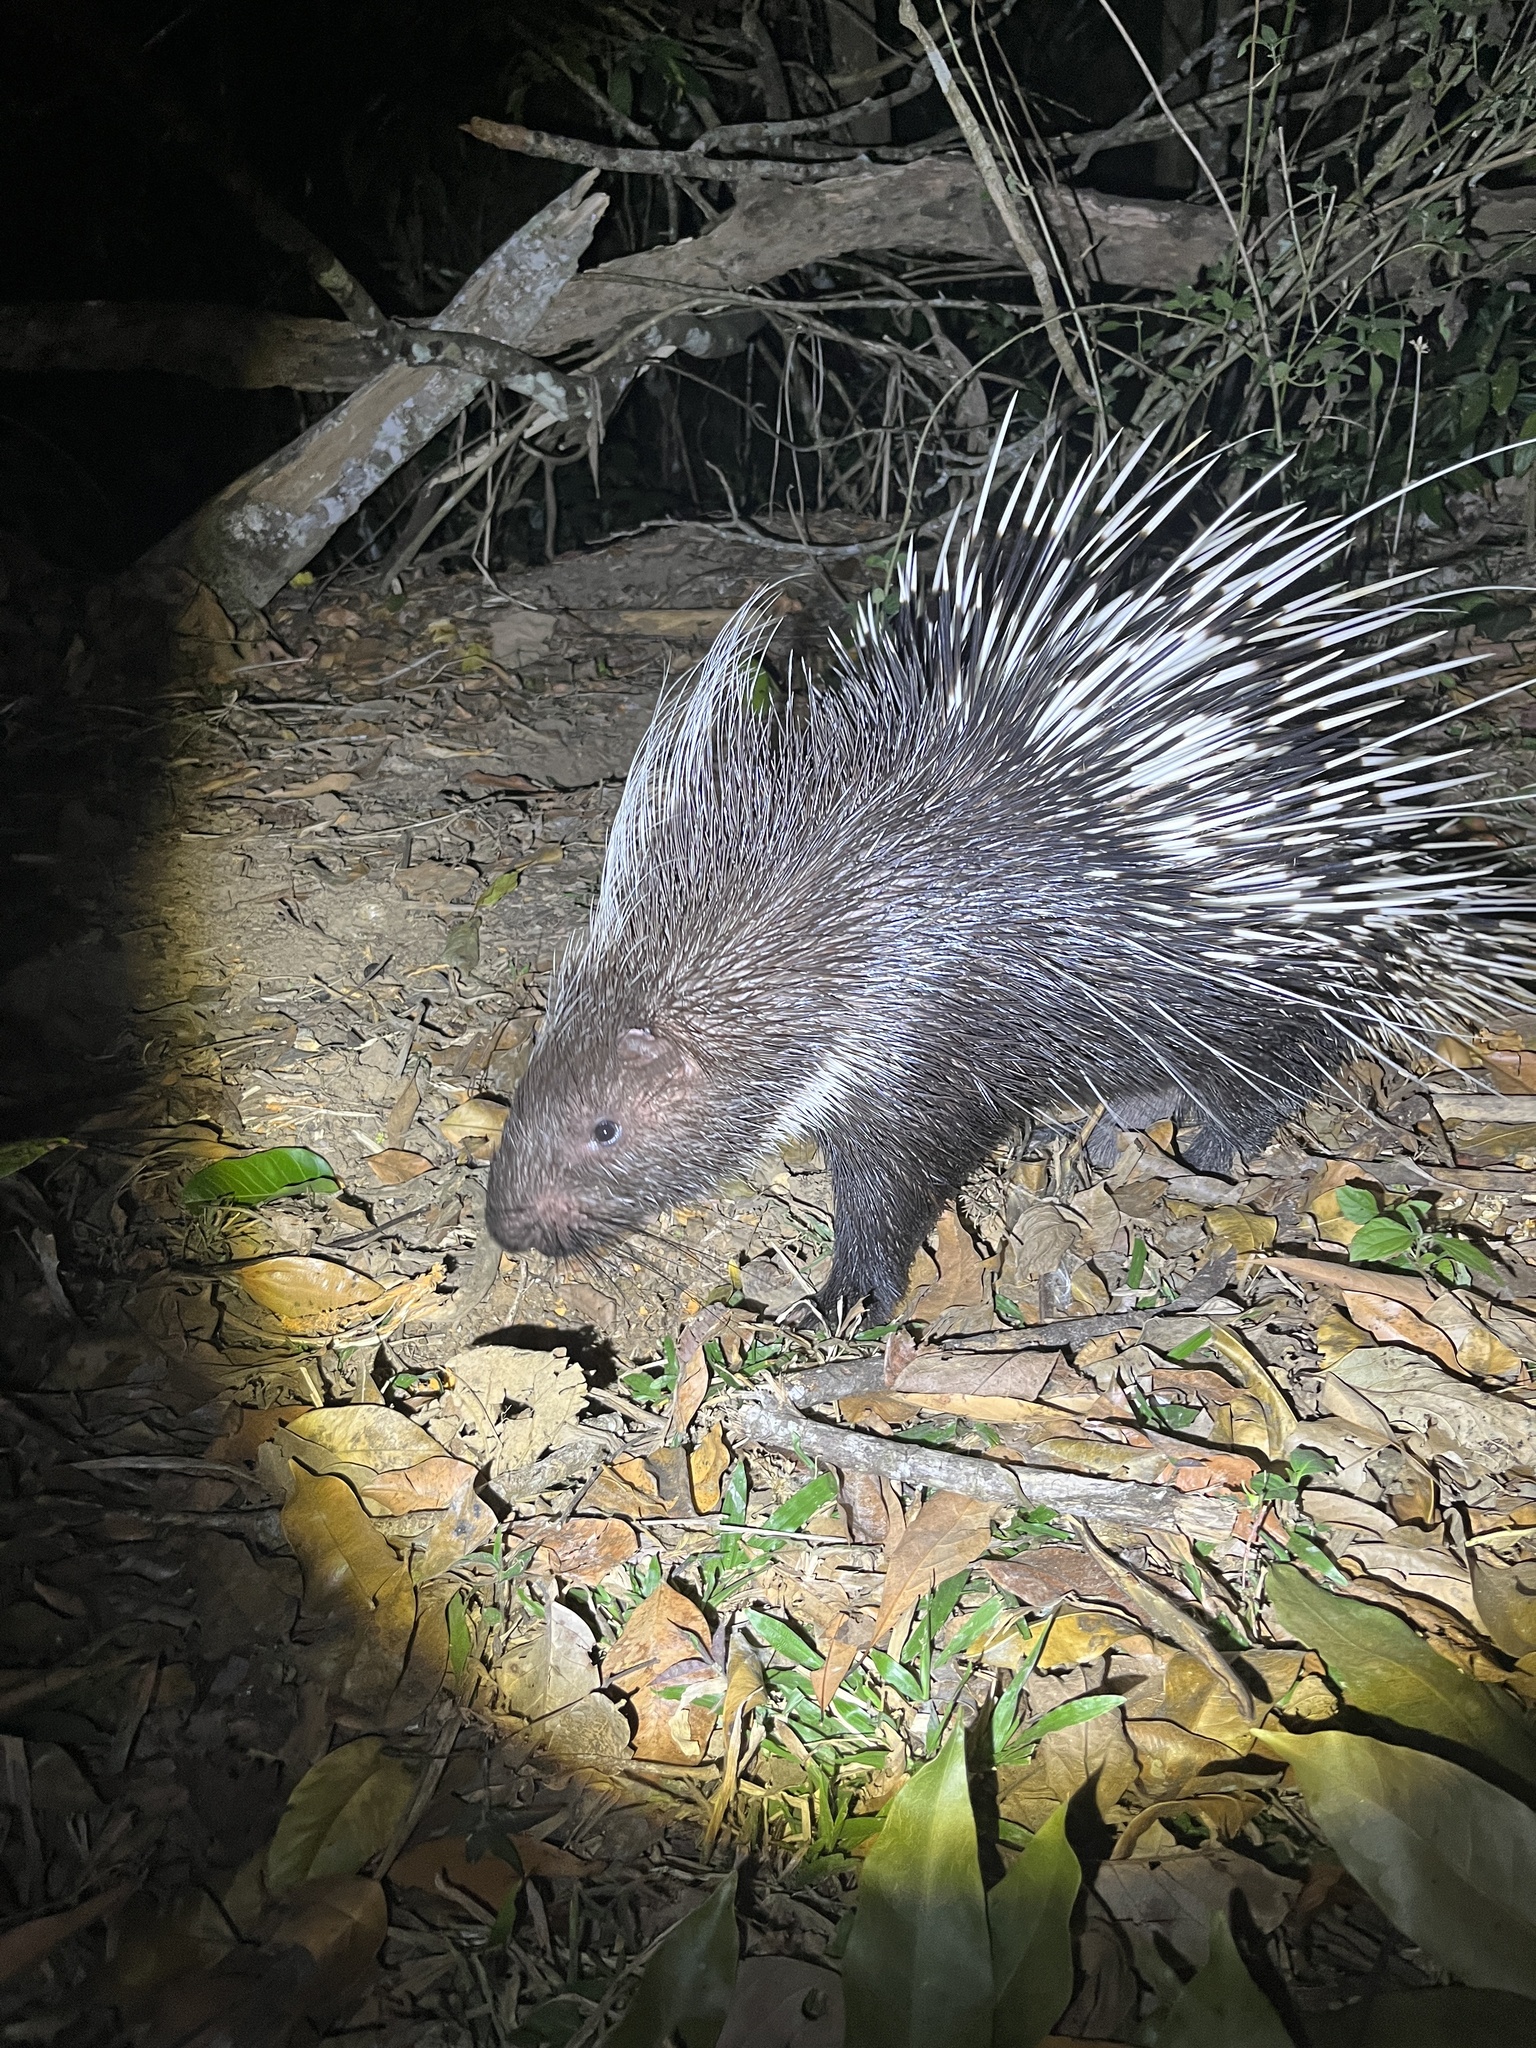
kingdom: Animalia
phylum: Chordata
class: Mammalia
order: Rodentia
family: Hystricidae
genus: Hystrix
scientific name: Hystrix brachyura
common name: Malayan porcupine
